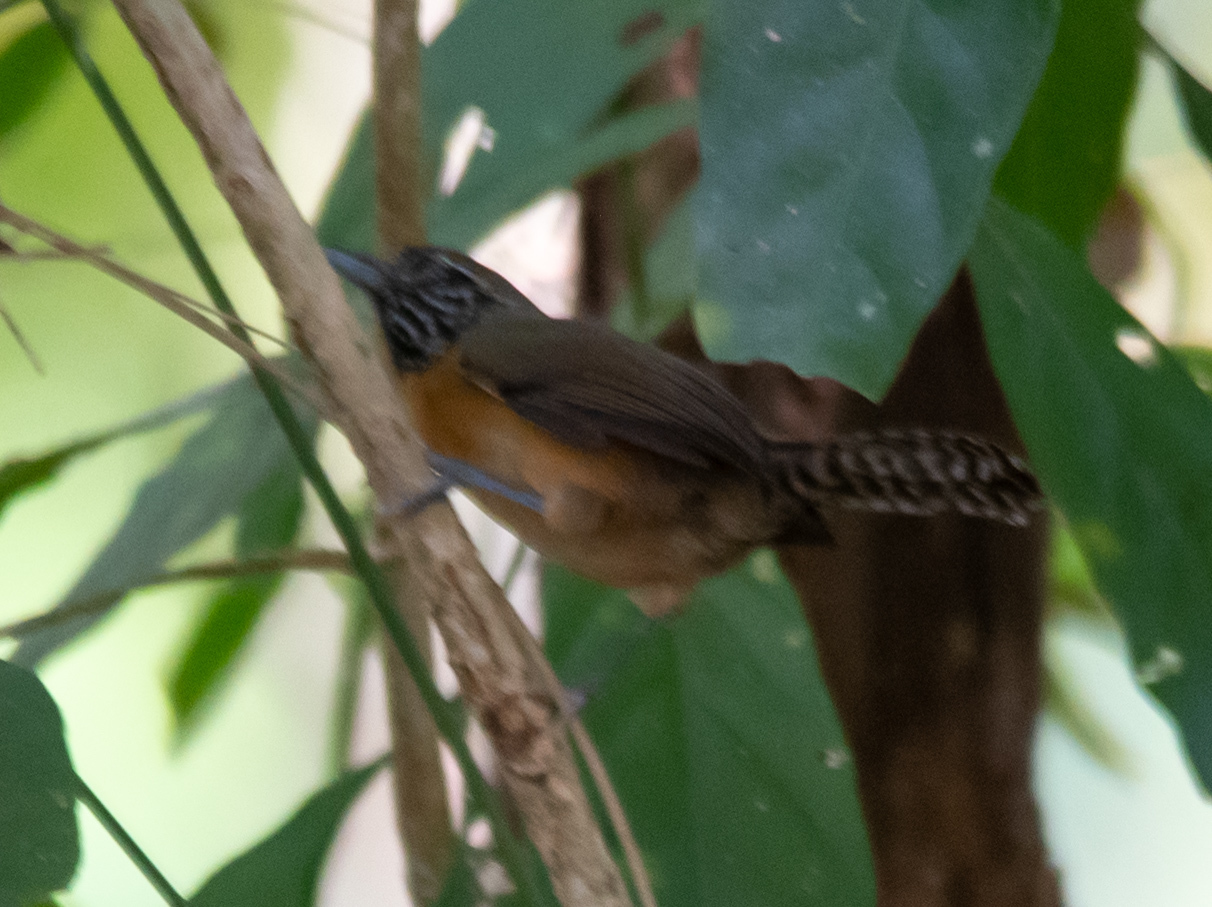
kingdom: Animalia
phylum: Chordata
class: Aves
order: Passeriformes
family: Troglodytidae
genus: Pheugopedius
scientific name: Pheugopedius rutilus
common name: Rufous-breasted wren
